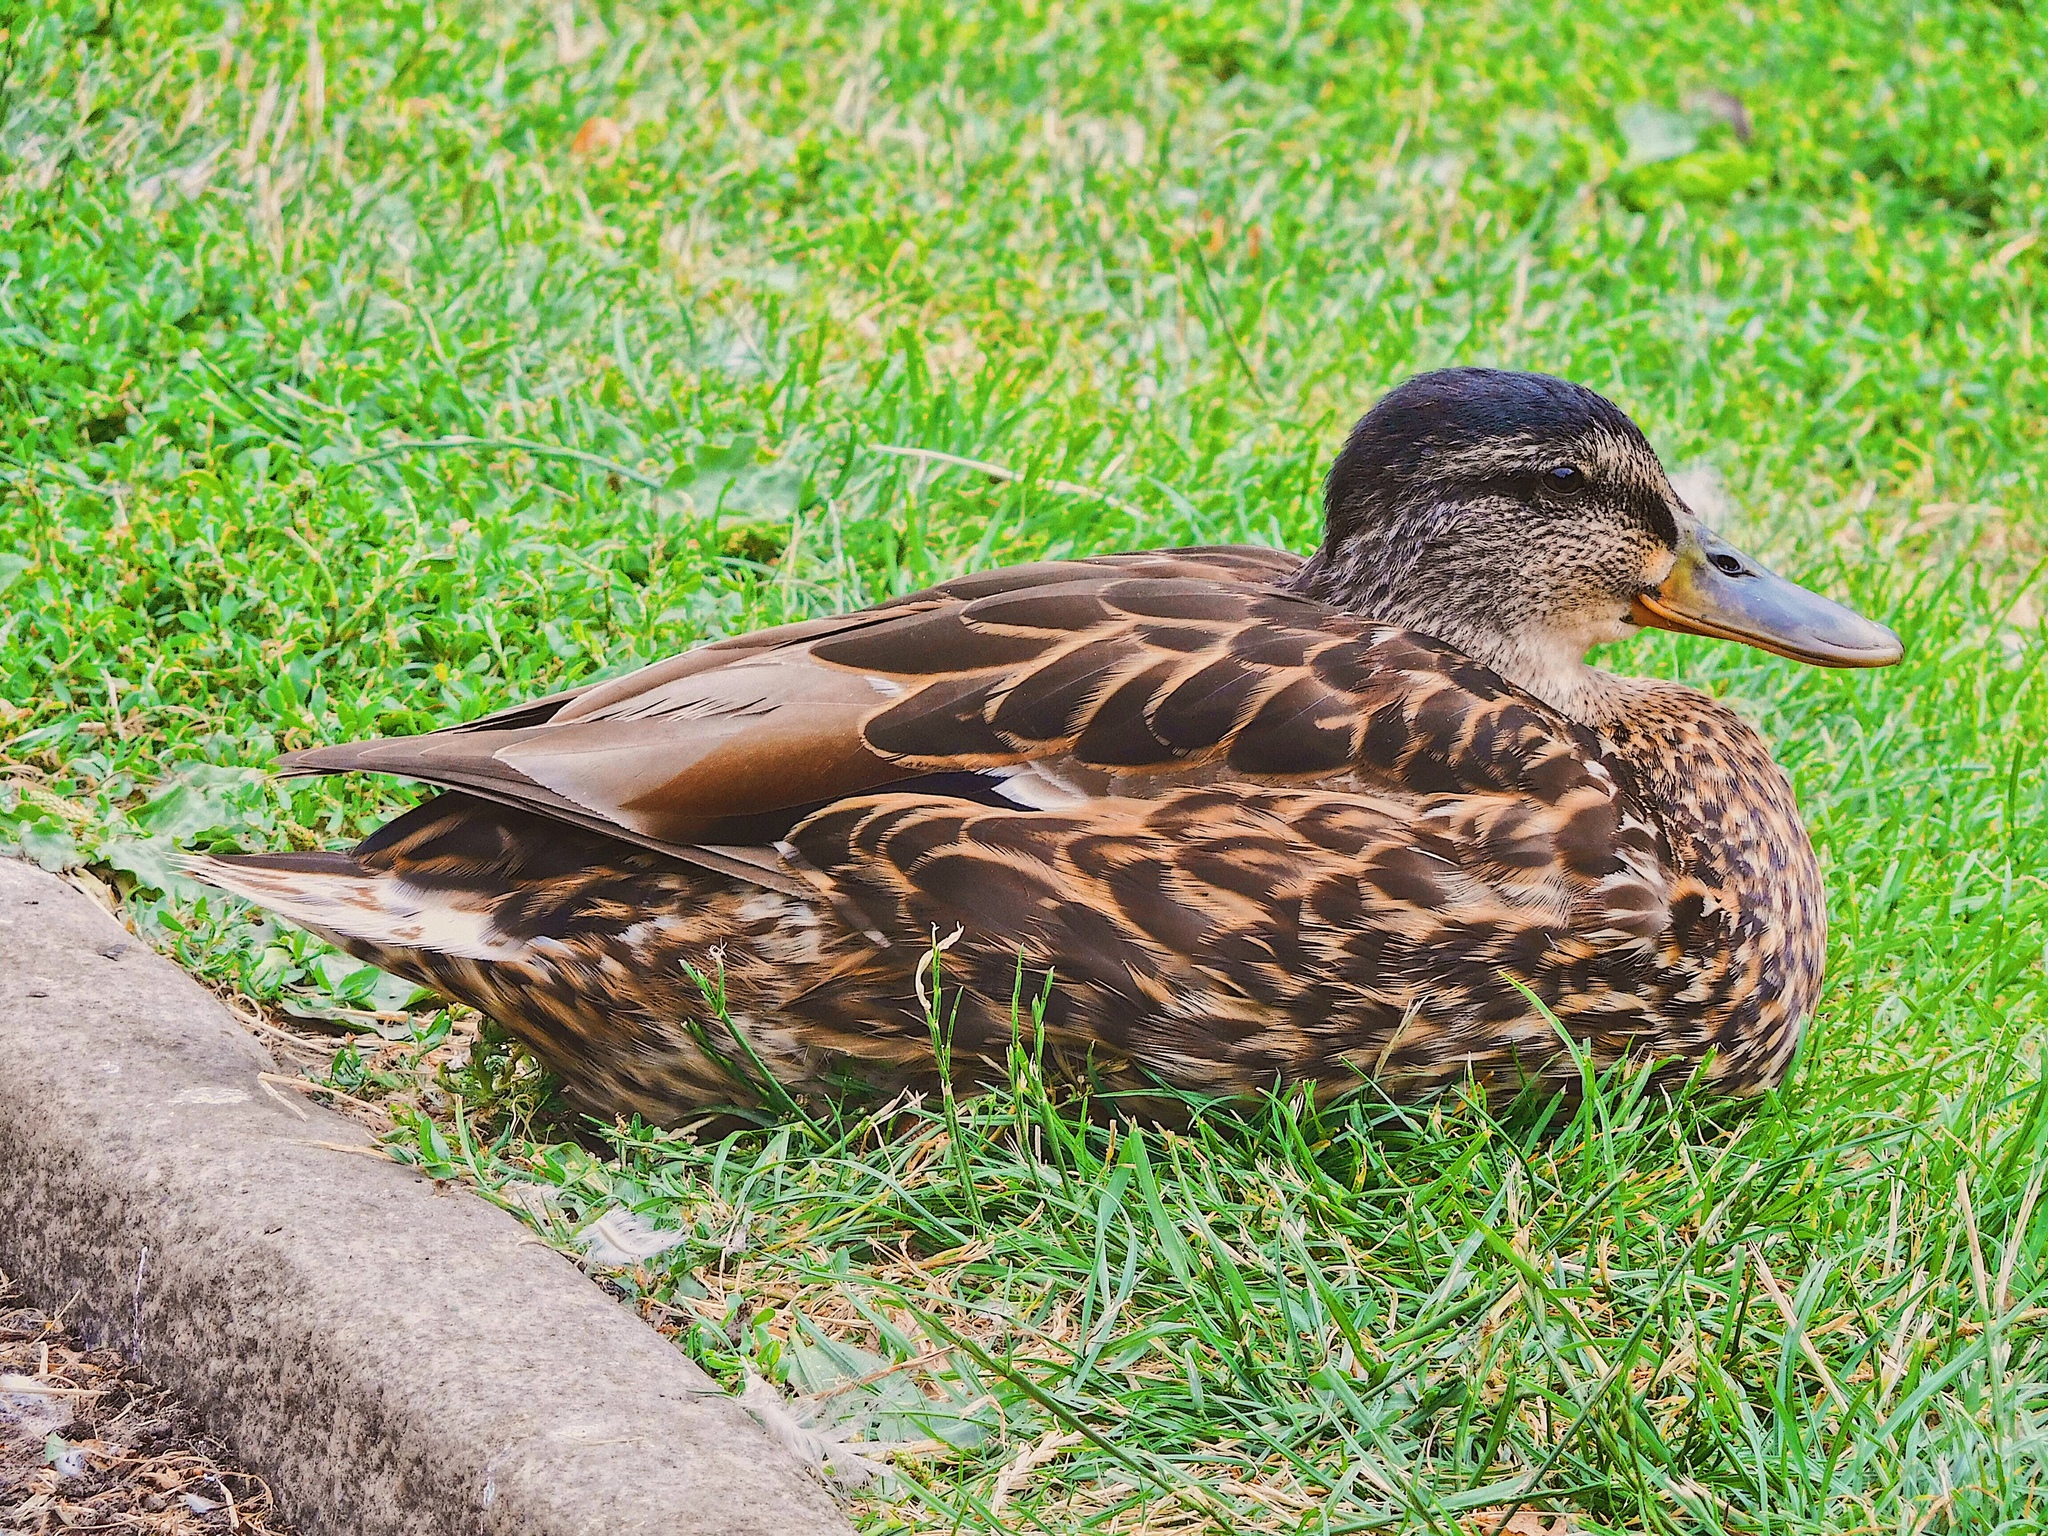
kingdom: Animalia
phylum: Chordata
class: Aves
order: Anseriformes
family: Anatidae
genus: Anas
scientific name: Anas platyrhynchos
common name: Mallard
